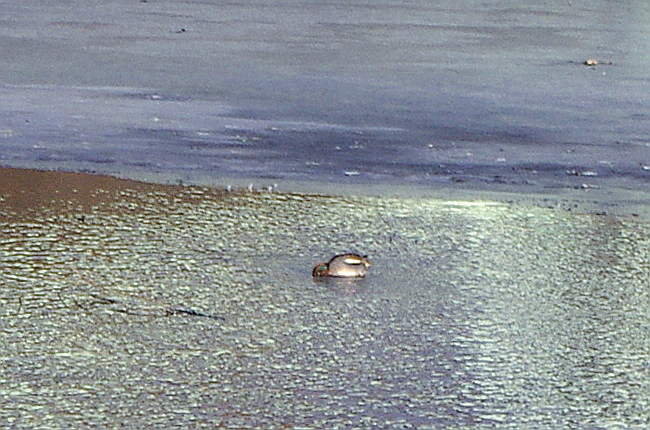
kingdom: Animalia
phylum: Chordata
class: Aves
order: Anseriformes
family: Anatidae
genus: Anas
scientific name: Anas crecca
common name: Eurasian teal
